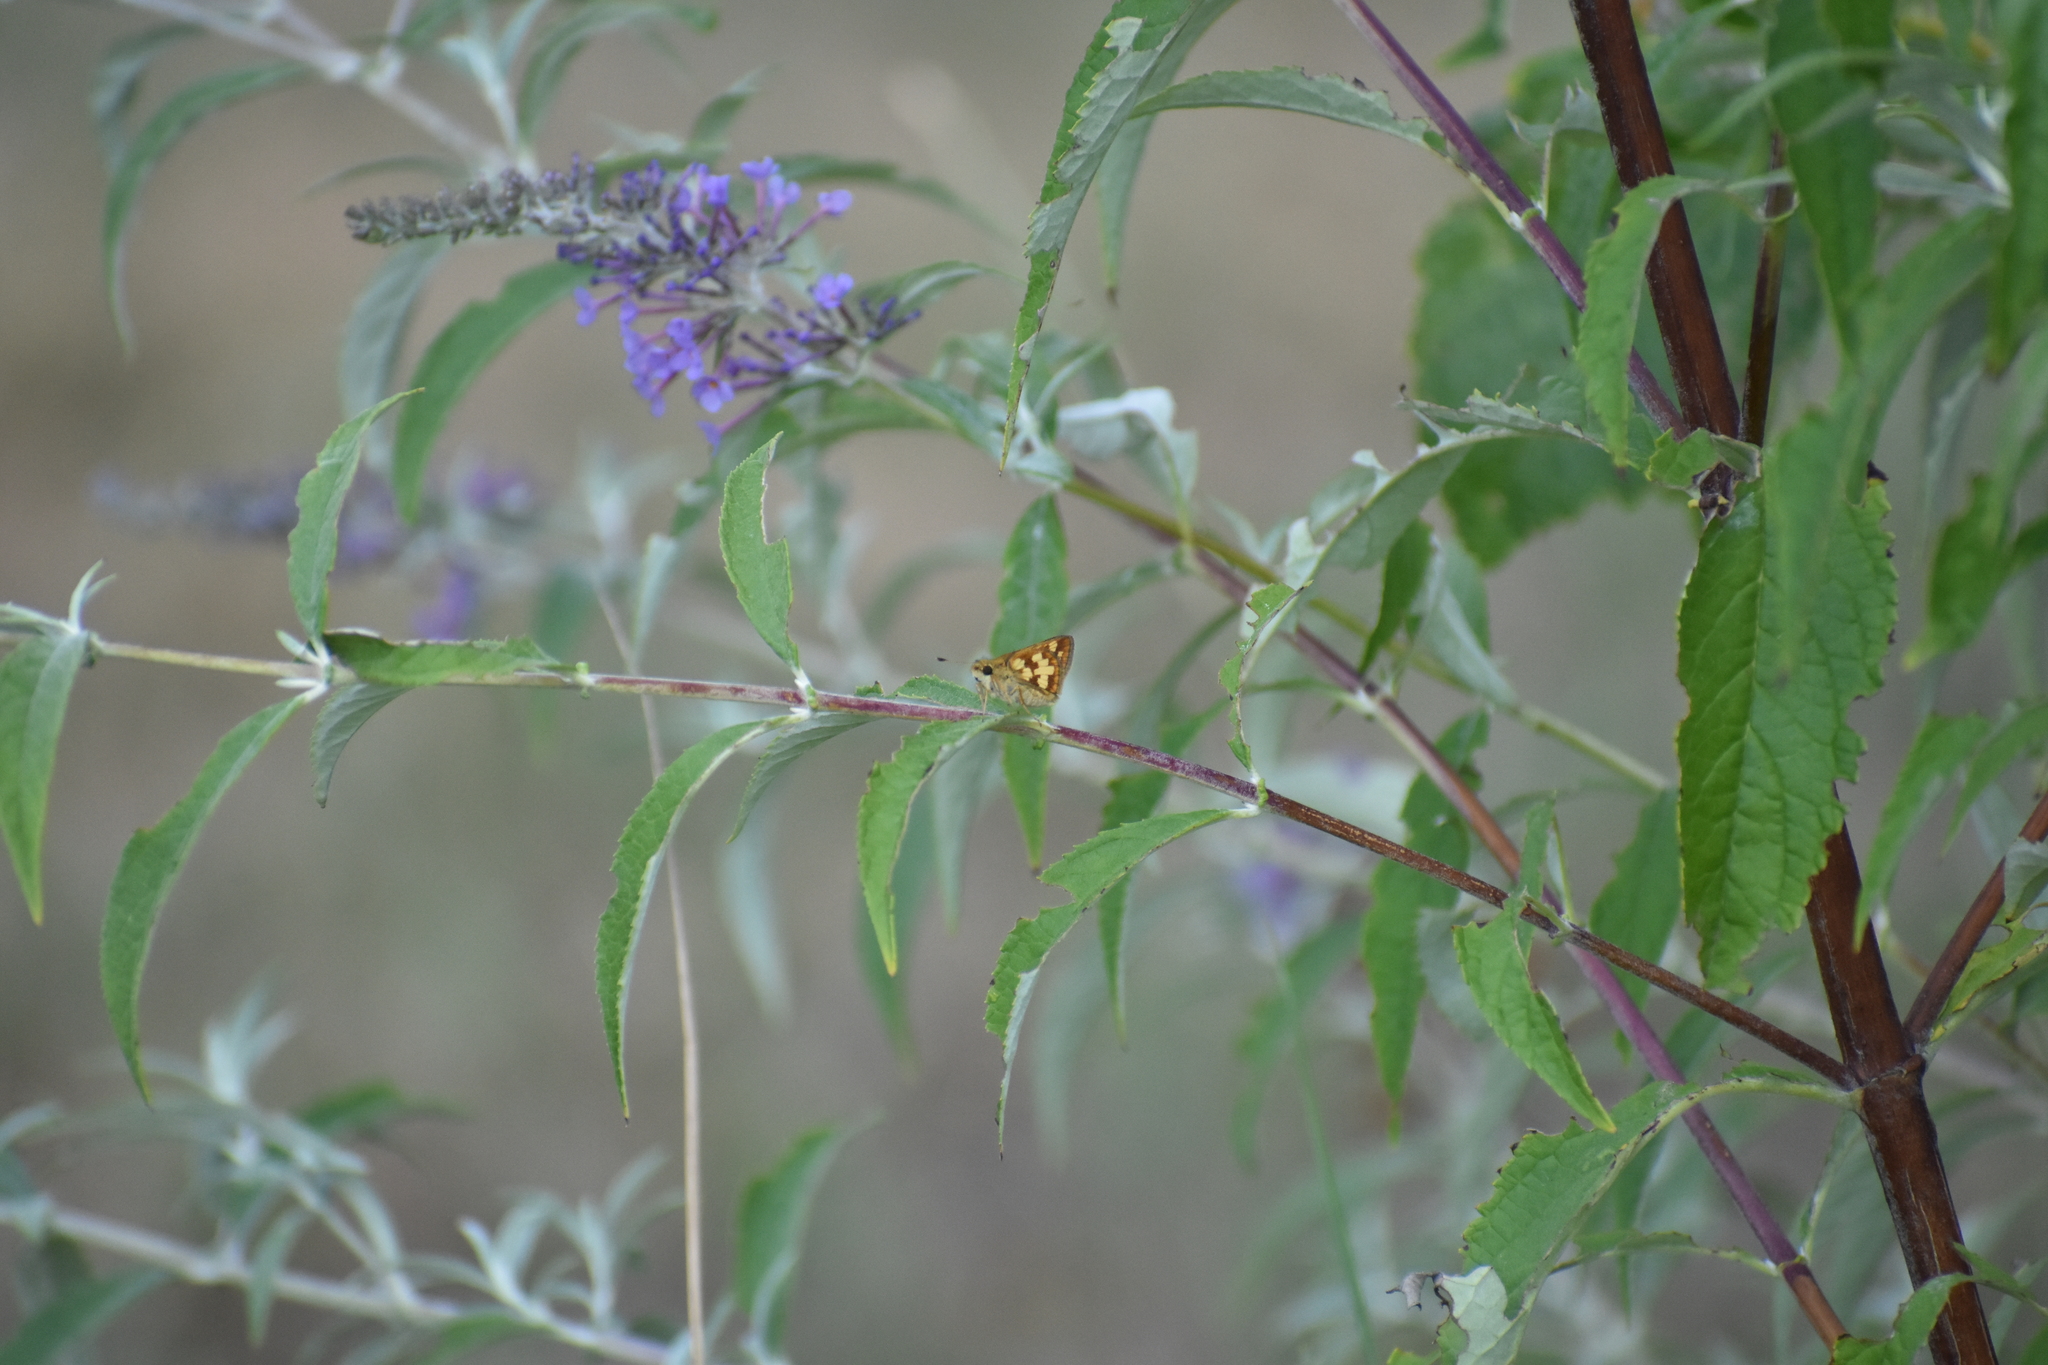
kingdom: Animalia
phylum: Arthropoda
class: Insecta
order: Lepidoptera
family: Hesperiidae
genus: Polites
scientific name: Polites coras
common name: Peck's skipper
